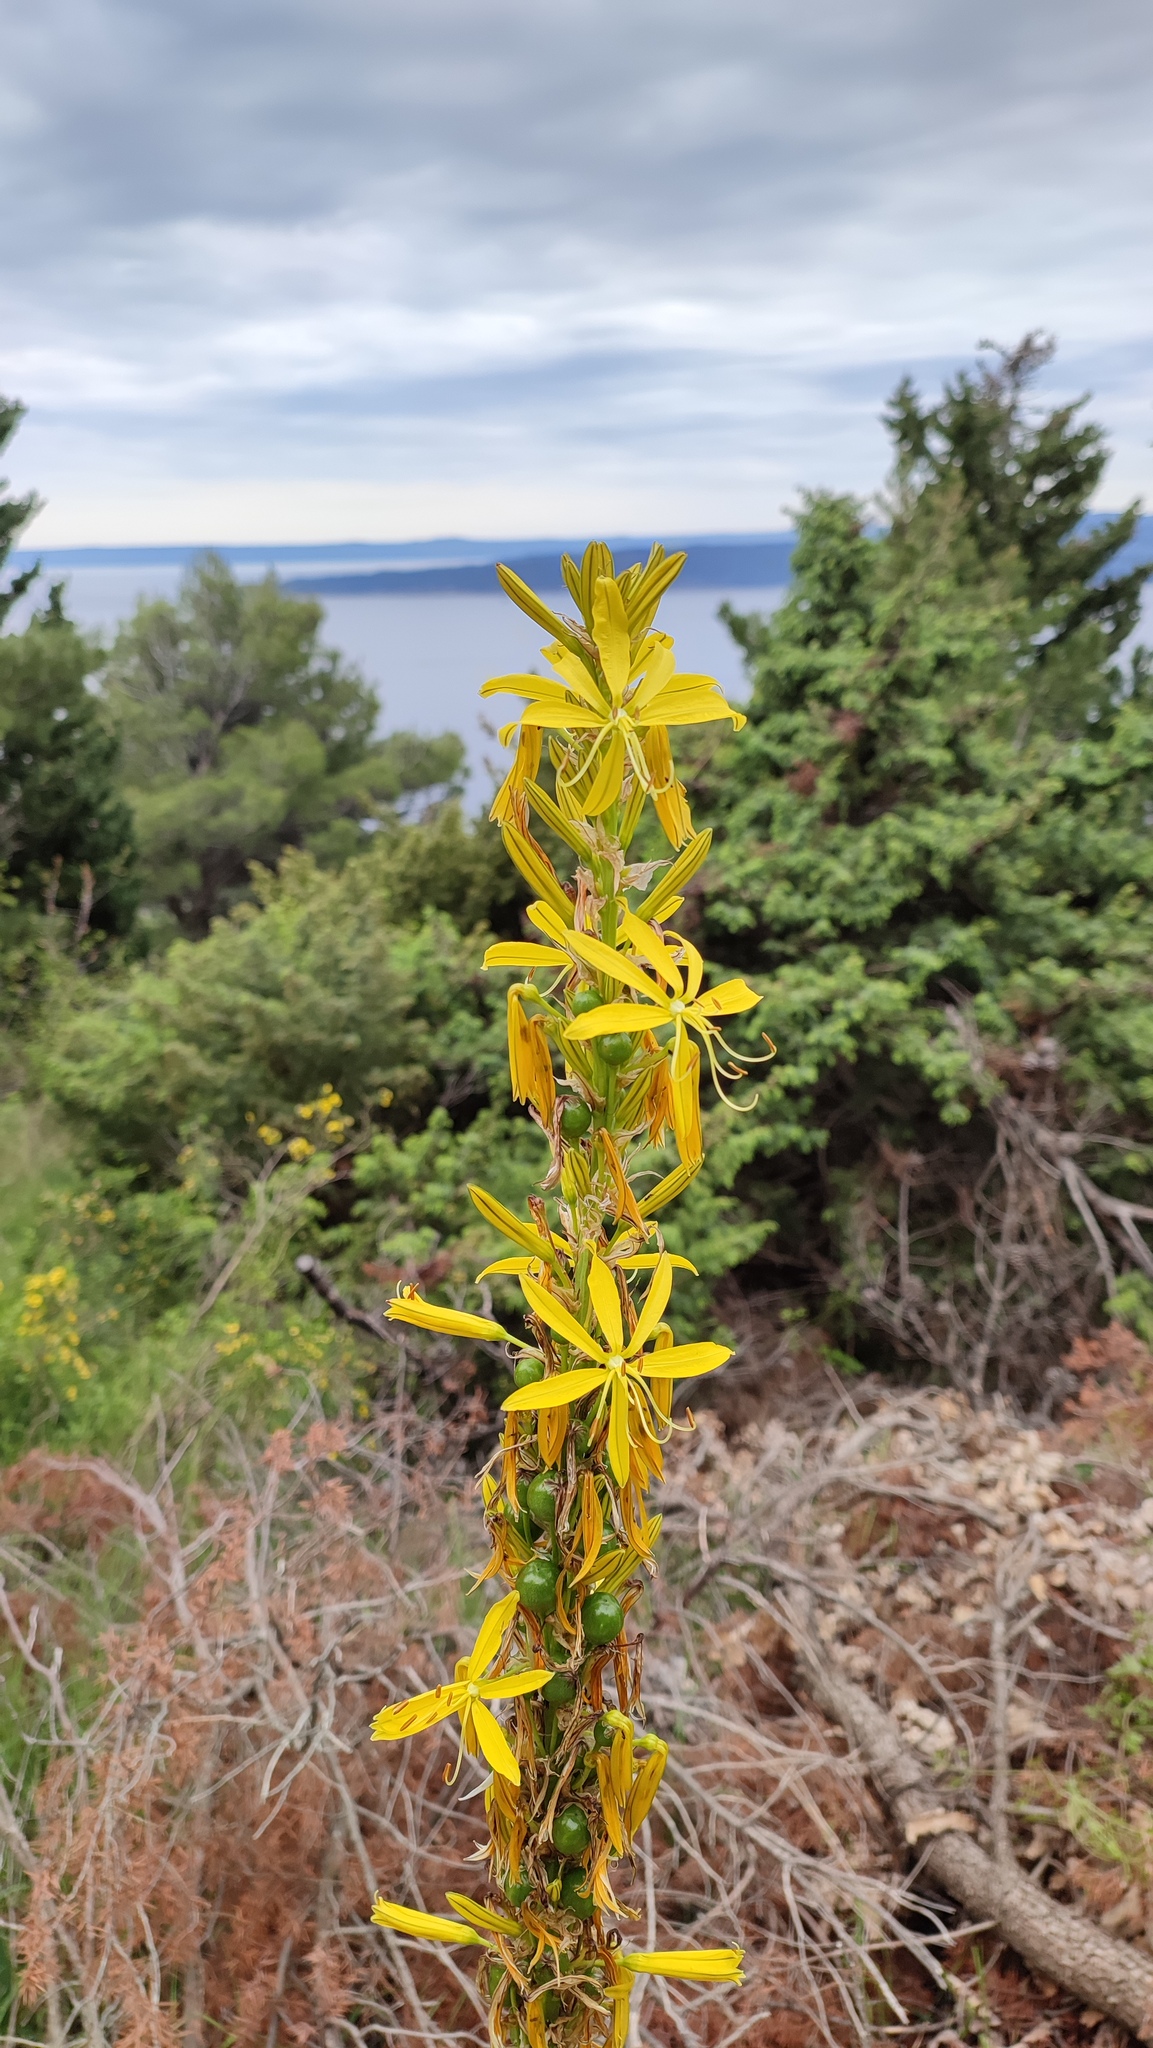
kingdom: Plantae
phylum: Tracheophyta
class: Liliopsida
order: Asparagales
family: Asphodelaceae
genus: Asphodeline
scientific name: Asphodeline lutea
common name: Yellow asphodel
